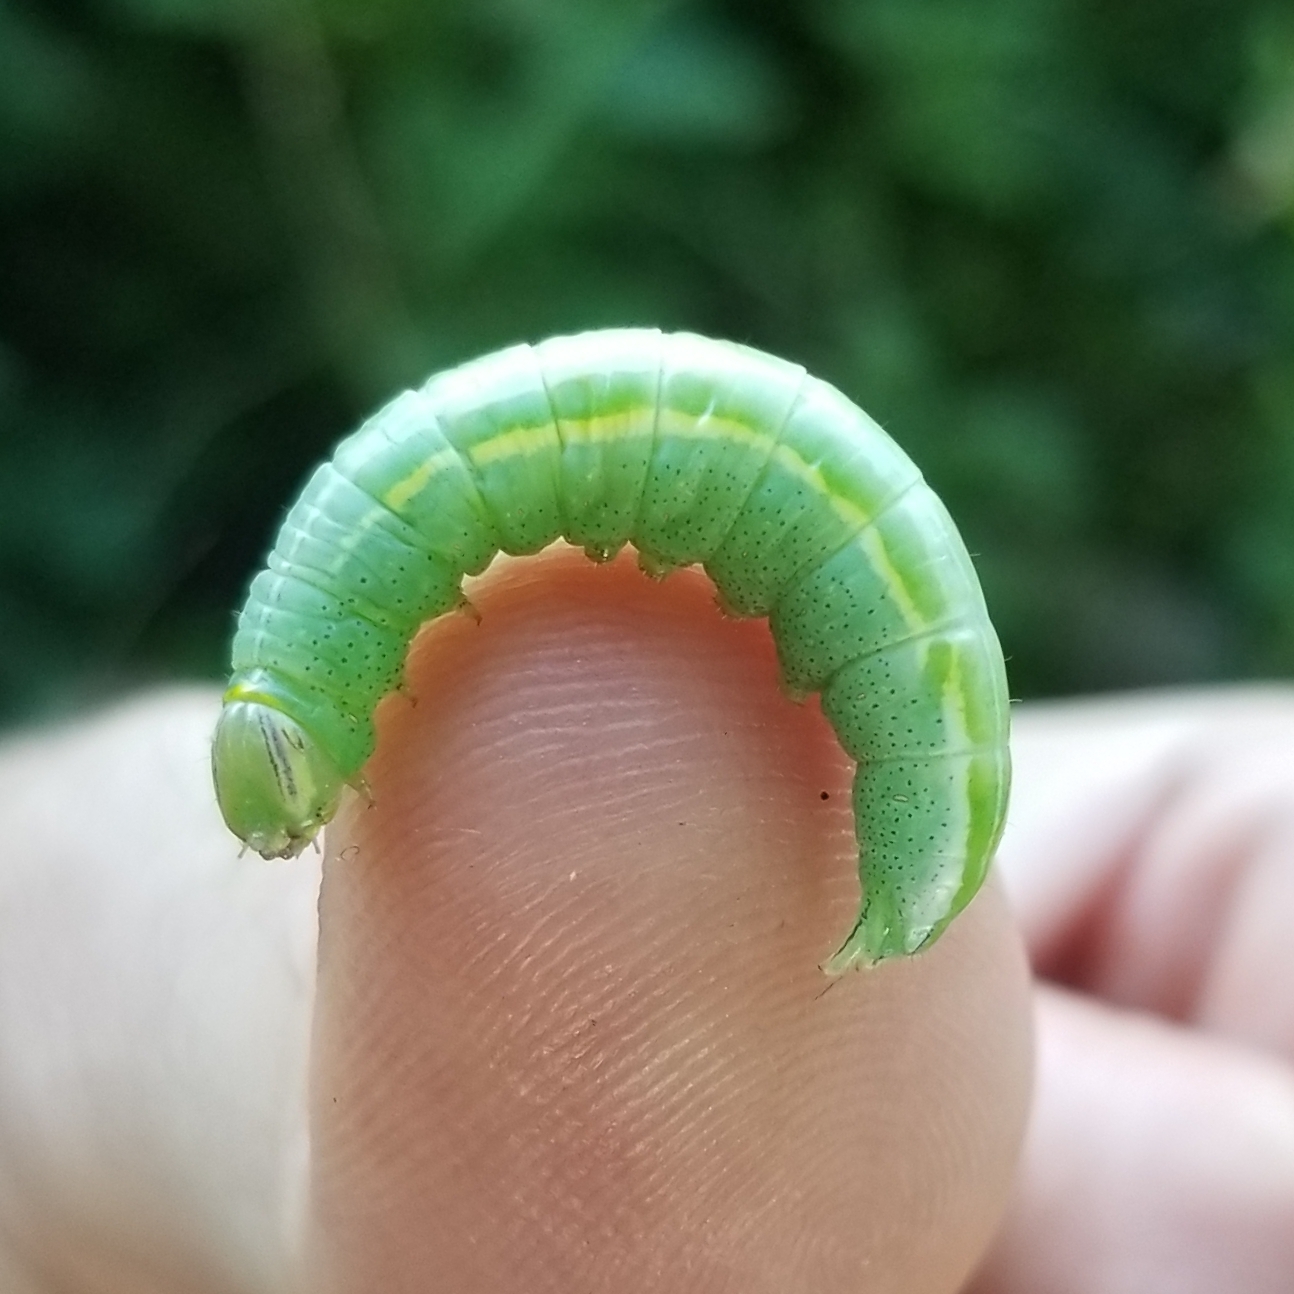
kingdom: Animalia
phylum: Arthropoda
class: Insecta
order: Lepidoptera
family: Notodontidae
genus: Disphragis
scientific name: Disphragis Cecrita guttivitta
